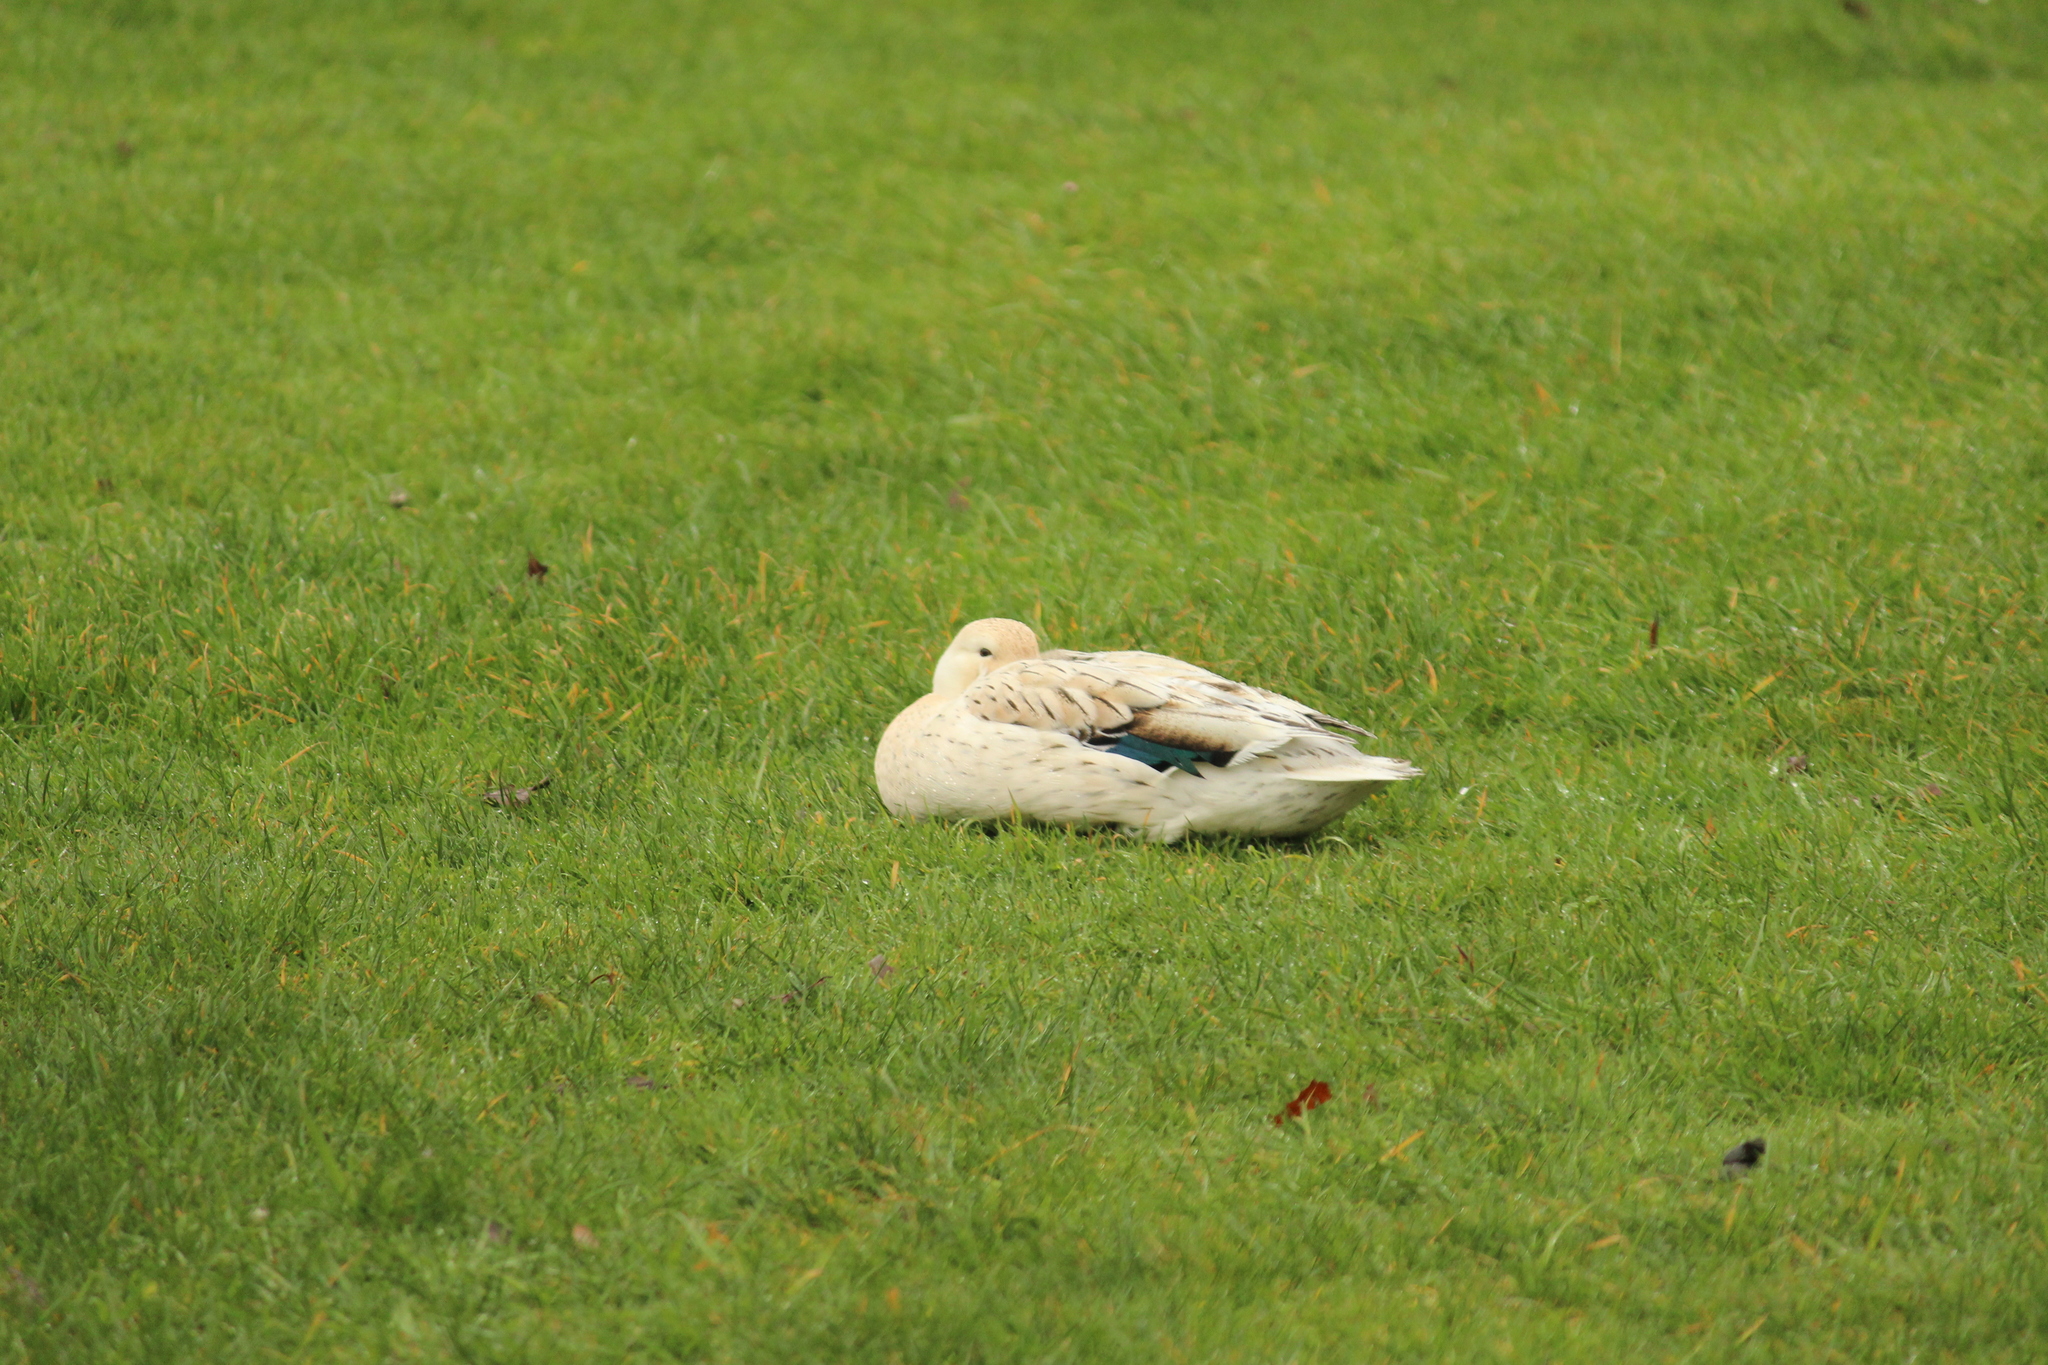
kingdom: Animalia
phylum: Chordata
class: Aves
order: Anseriformes
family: Anatidae
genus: Anas
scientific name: Anas platyrhynchos
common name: Mallard
